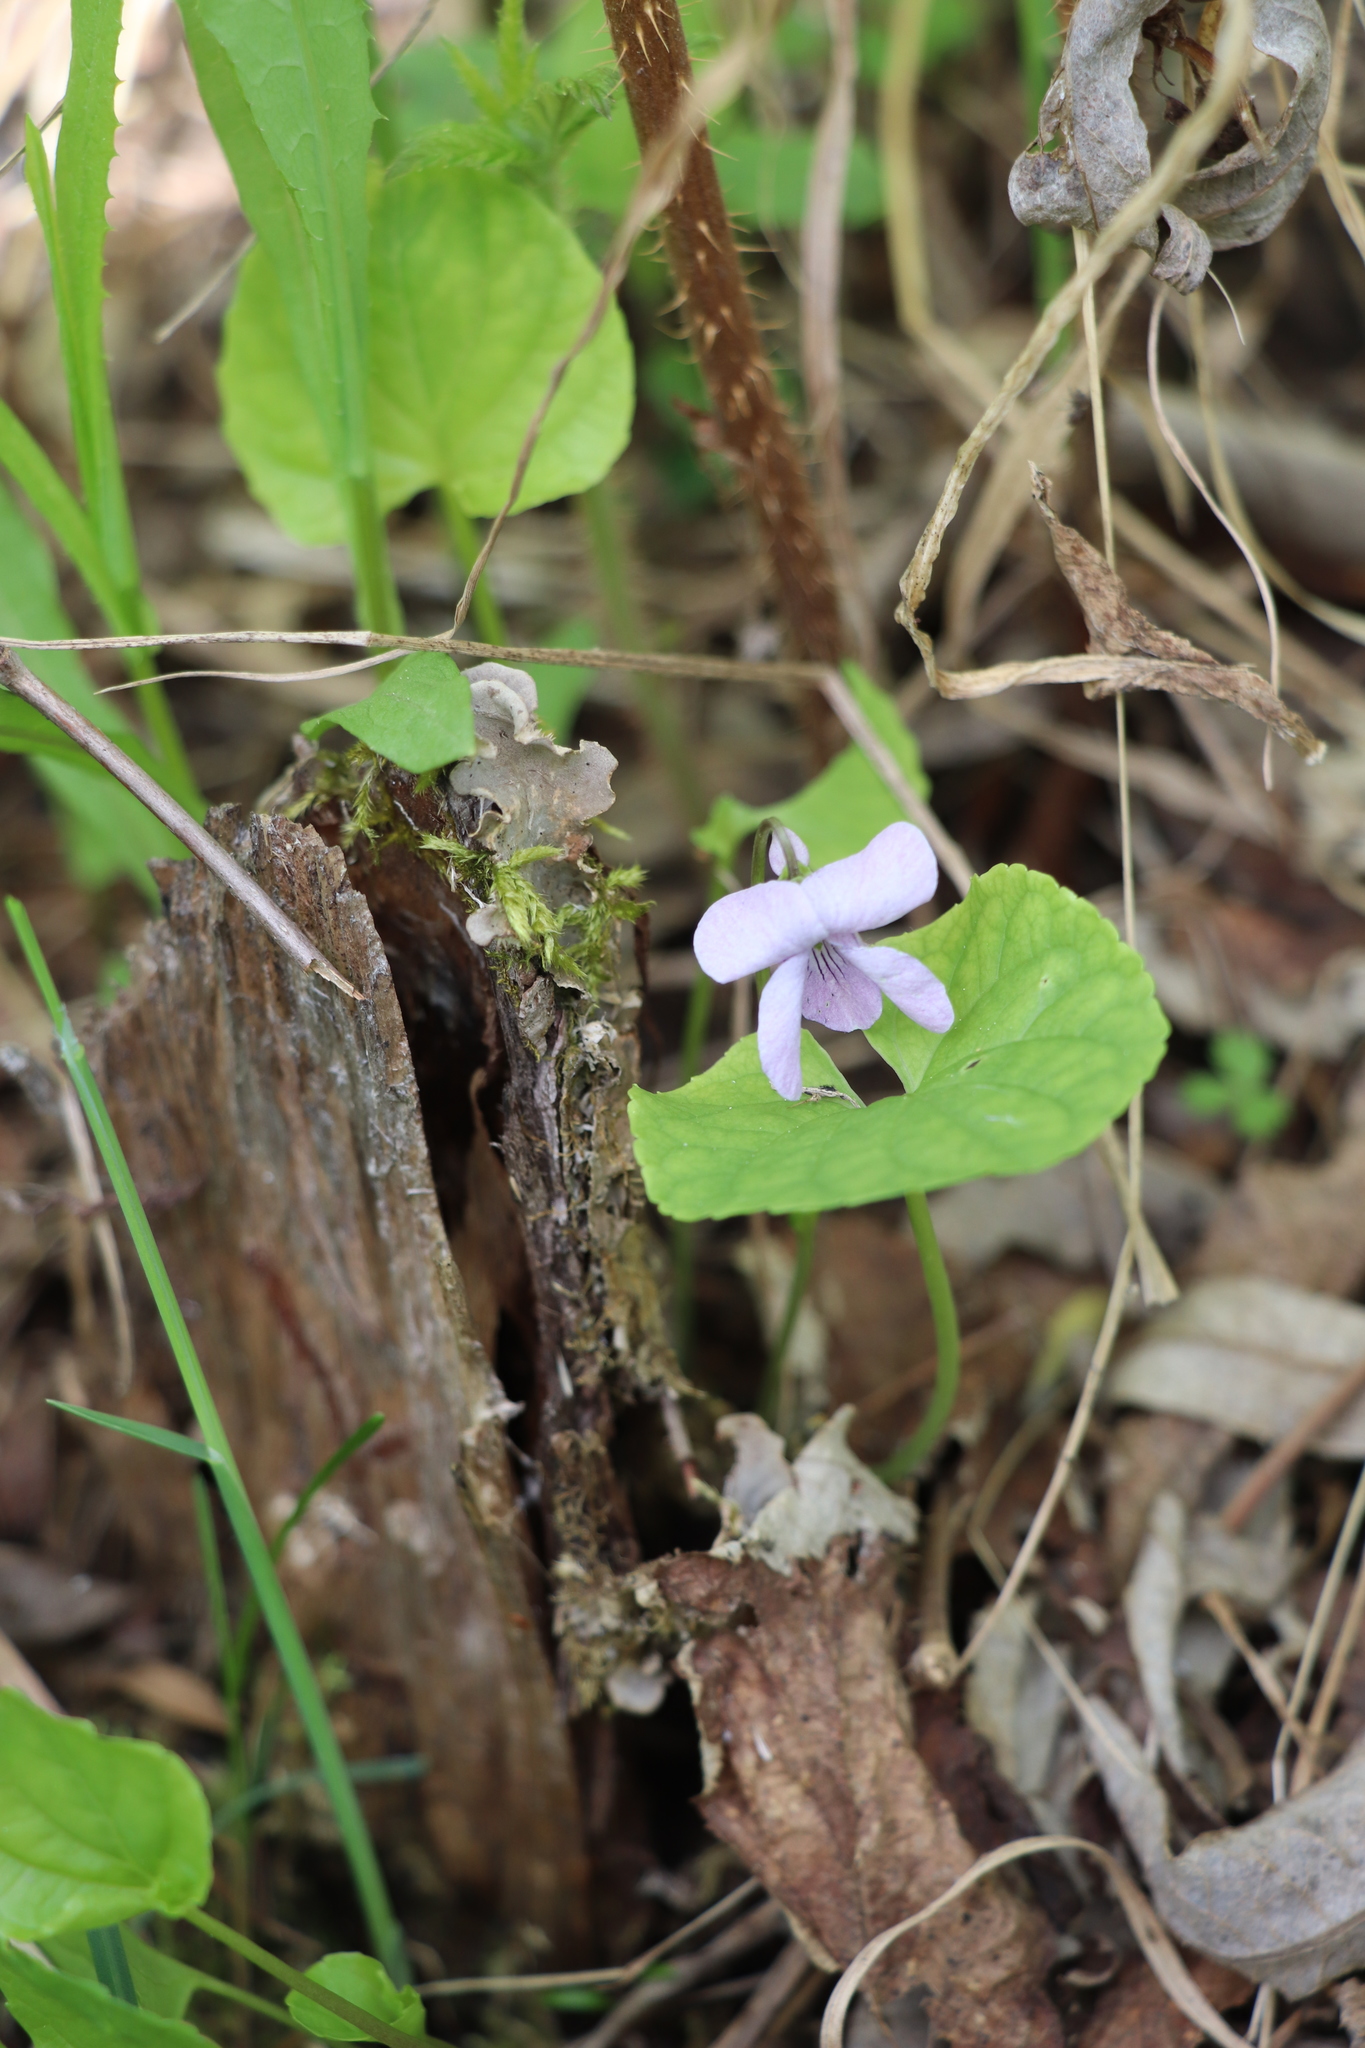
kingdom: Plantae
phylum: Tracheophyta
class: Magnoliopsida
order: Malpighiales
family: Violaceae
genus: Viola
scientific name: Viola epipsila
